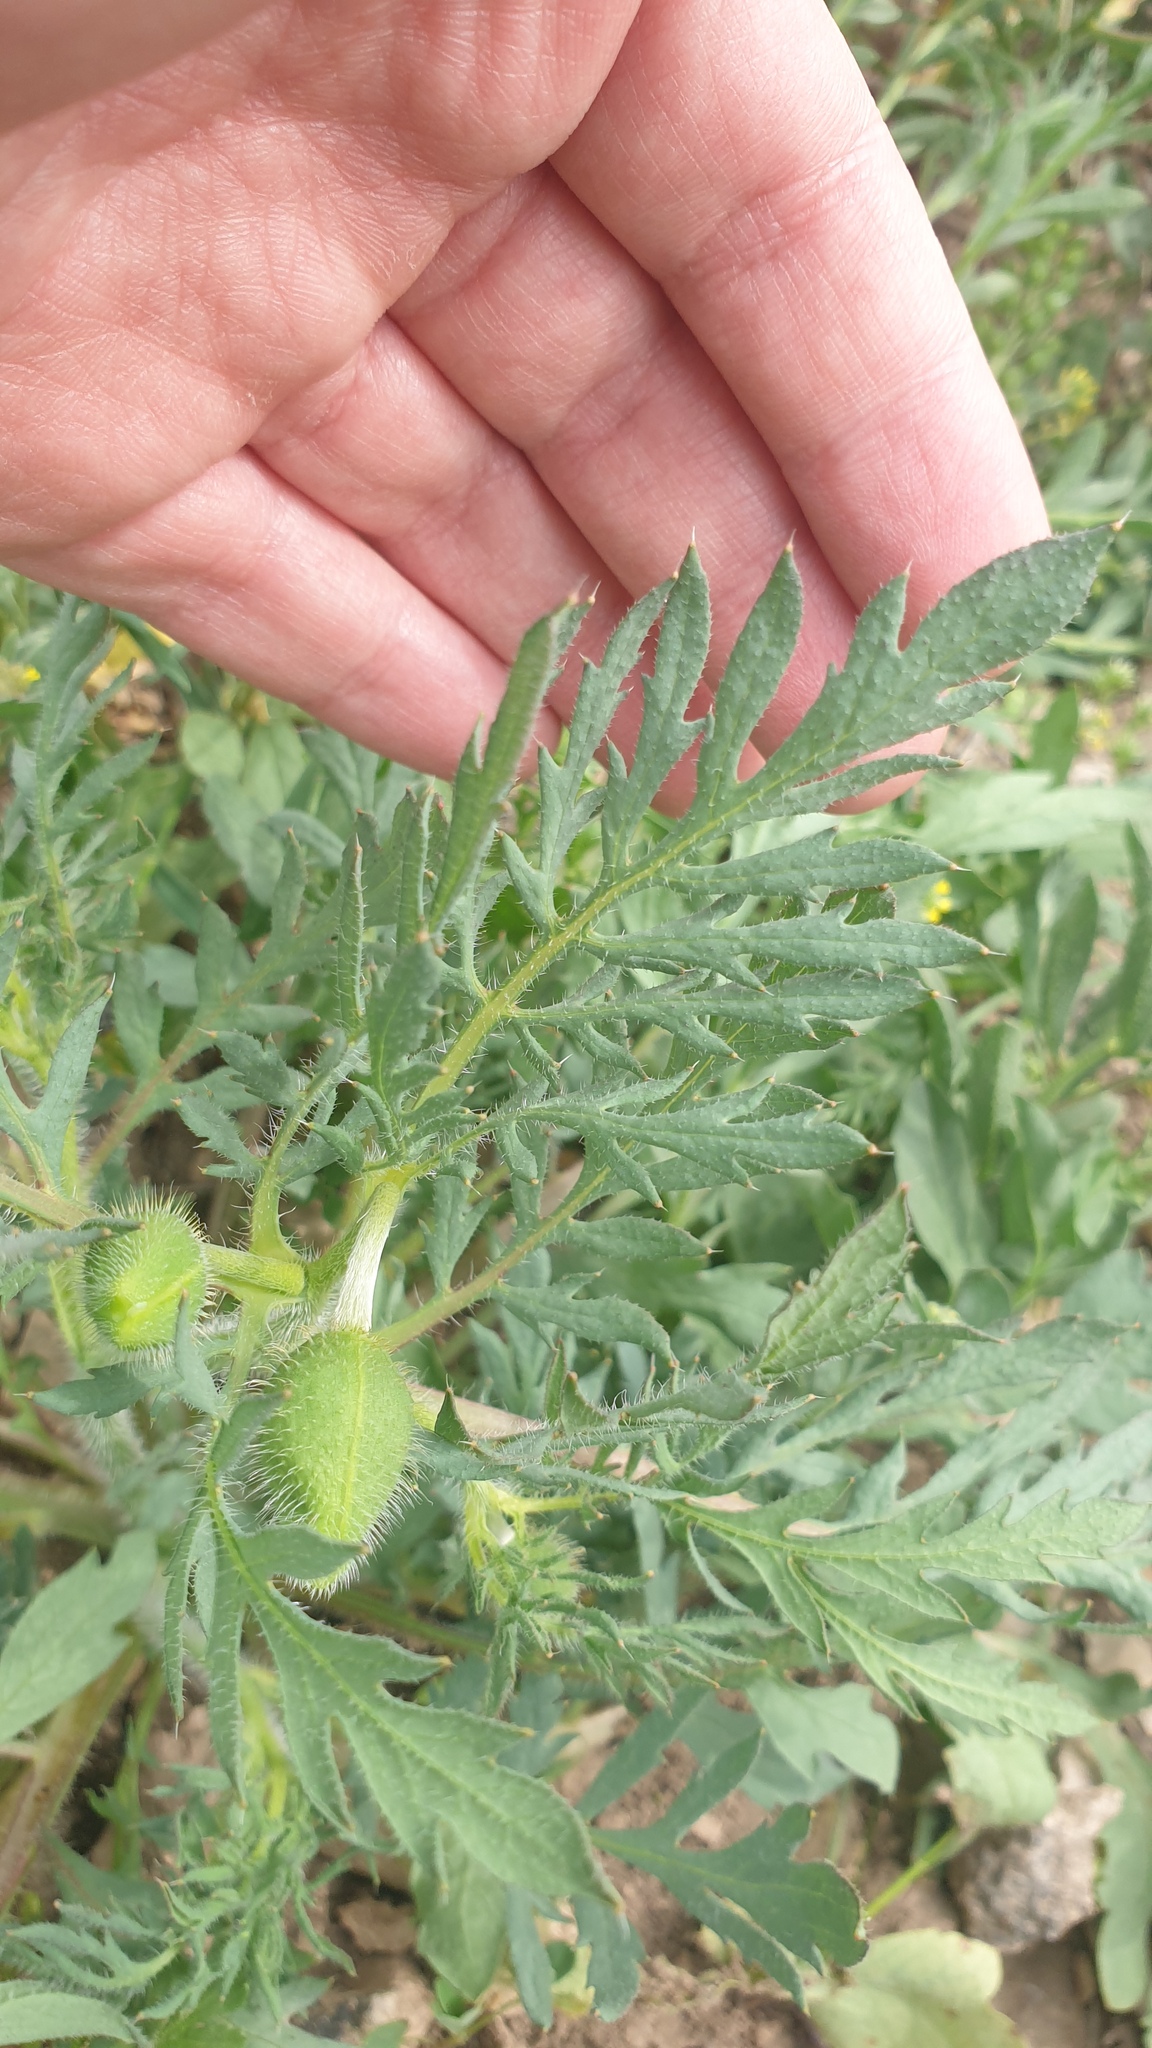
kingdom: Plantae
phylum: Tracheophyta
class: Magnoliopsida
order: Ranunculales
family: Papaveraceae
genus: Roemeria
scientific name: Roemeria refracta
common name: Spotted asian poppy
